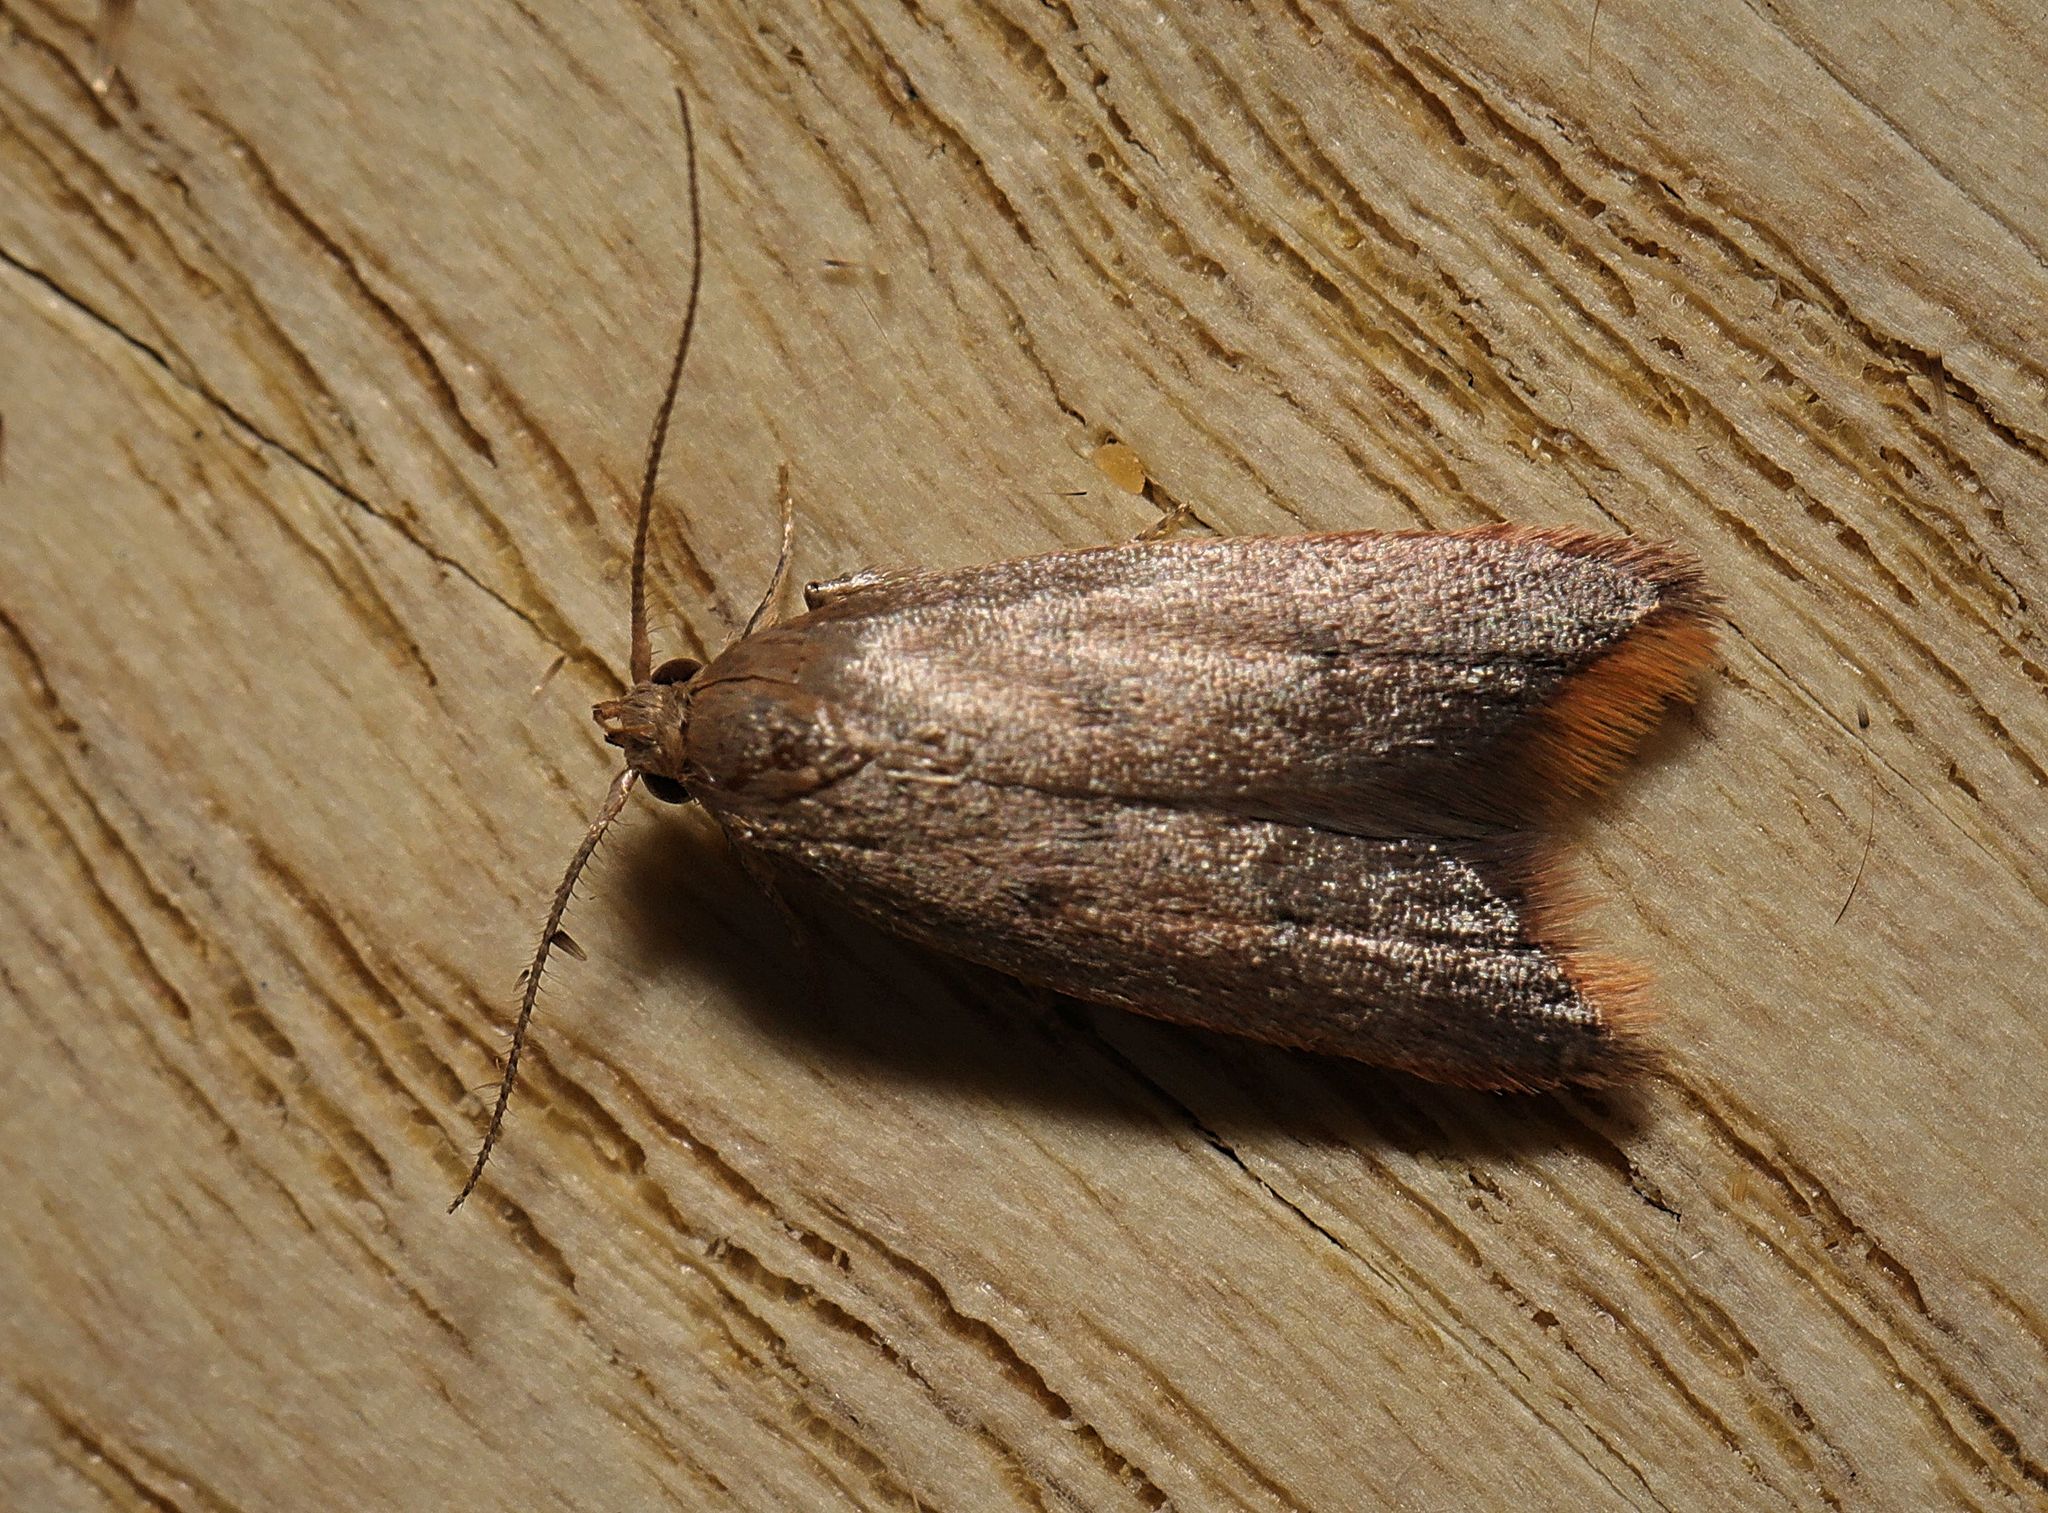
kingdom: Animalia
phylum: Arthropoda
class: Insecta
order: Lepidoptera
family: Oecophoridae
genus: Tachystola
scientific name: Tachystola acroxantha
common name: Ruddy streak
